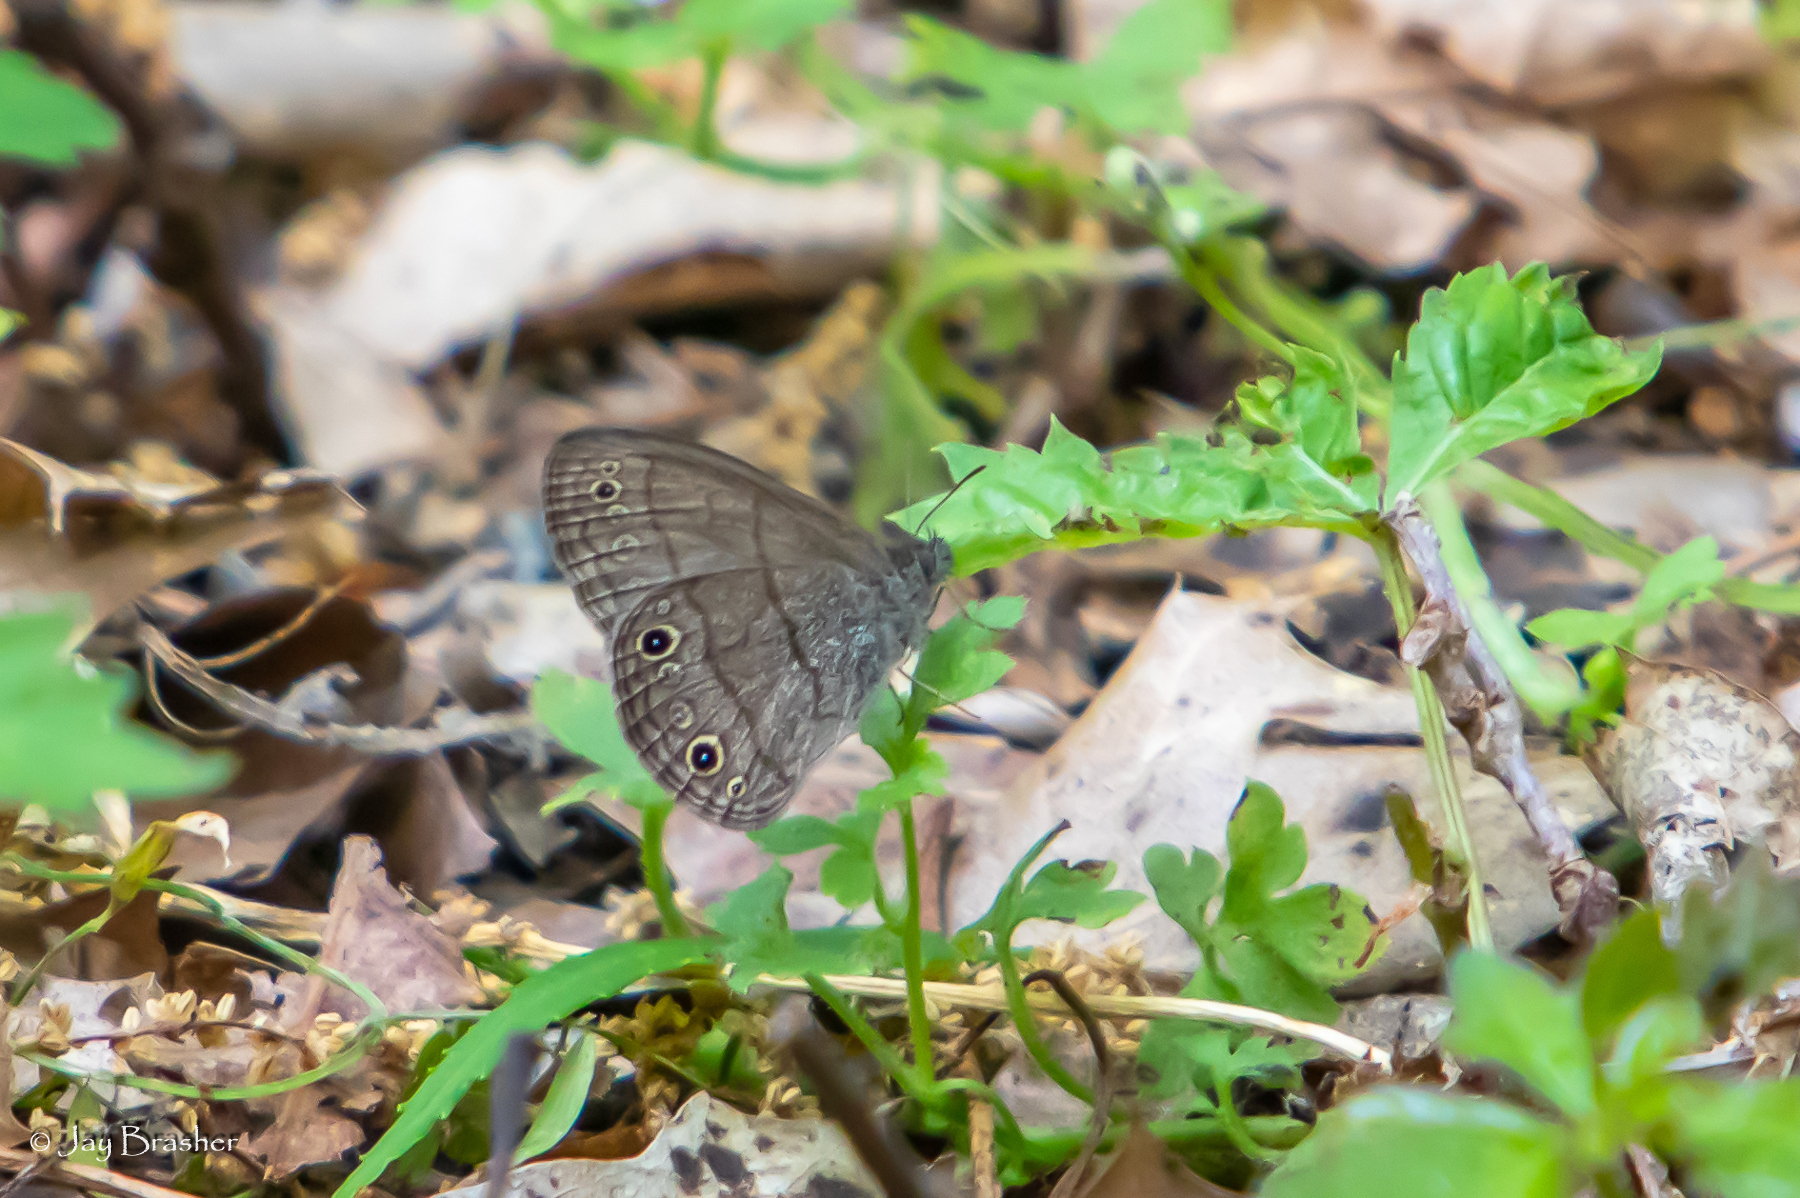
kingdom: Animalia
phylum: Arthropoda
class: Insecta
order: Lepidoptera
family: Nymphalidae
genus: Hermeuptychia
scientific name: Hermeuptychia hermes
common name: Hermes satyr
